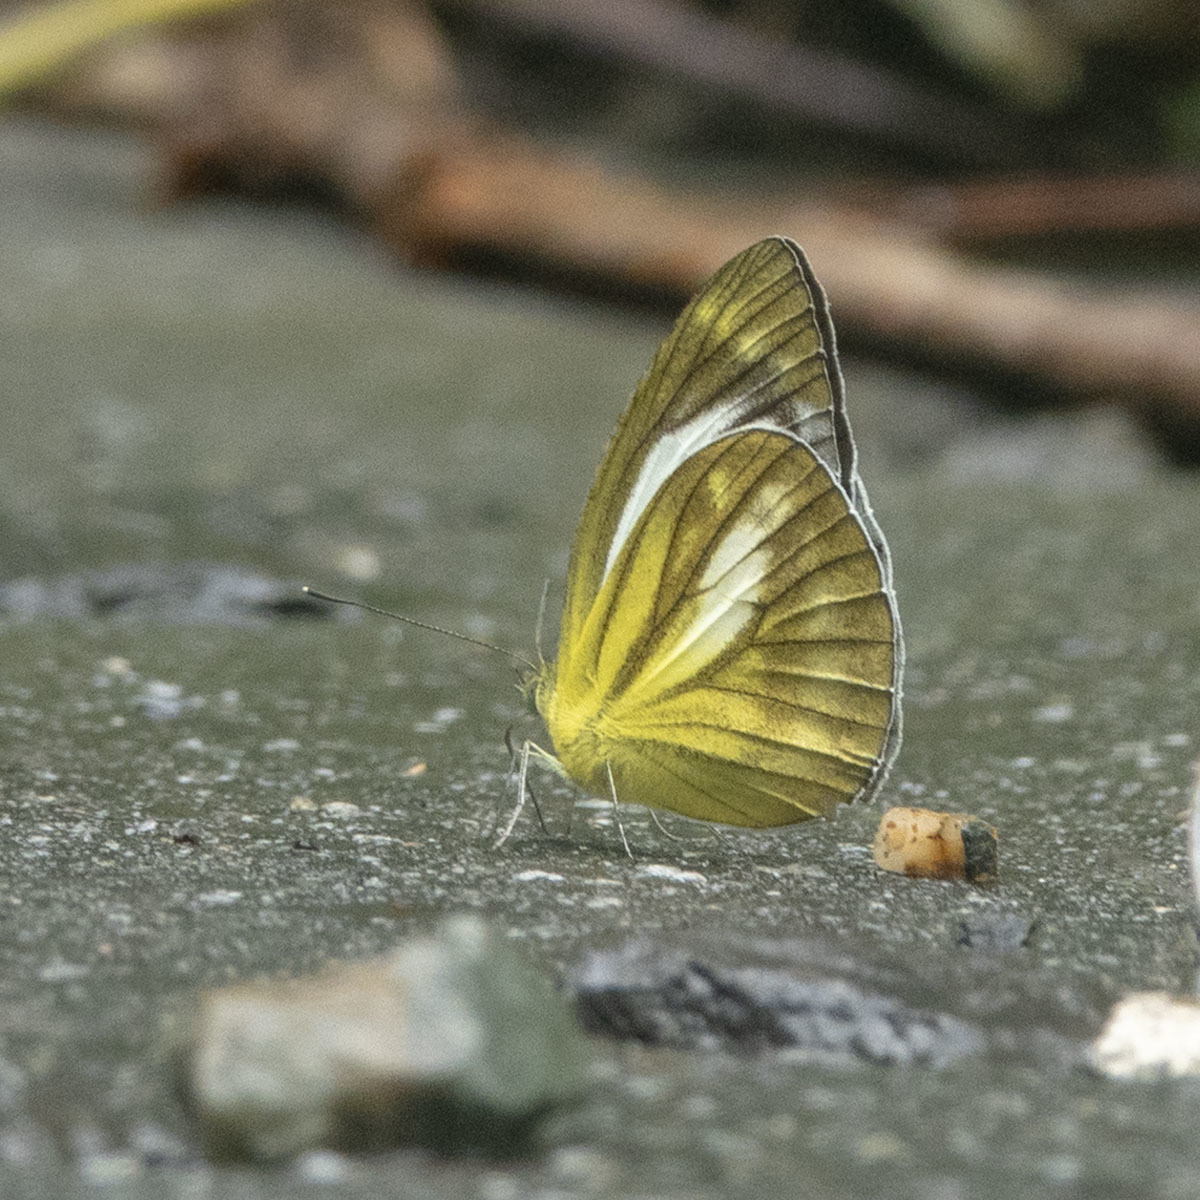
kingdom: Animalia
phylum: Arthropoda
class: Insecta
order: Lepidoptera
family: Pieridae
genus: Cepora
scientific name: Cepora nadina
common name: Lesser gull
